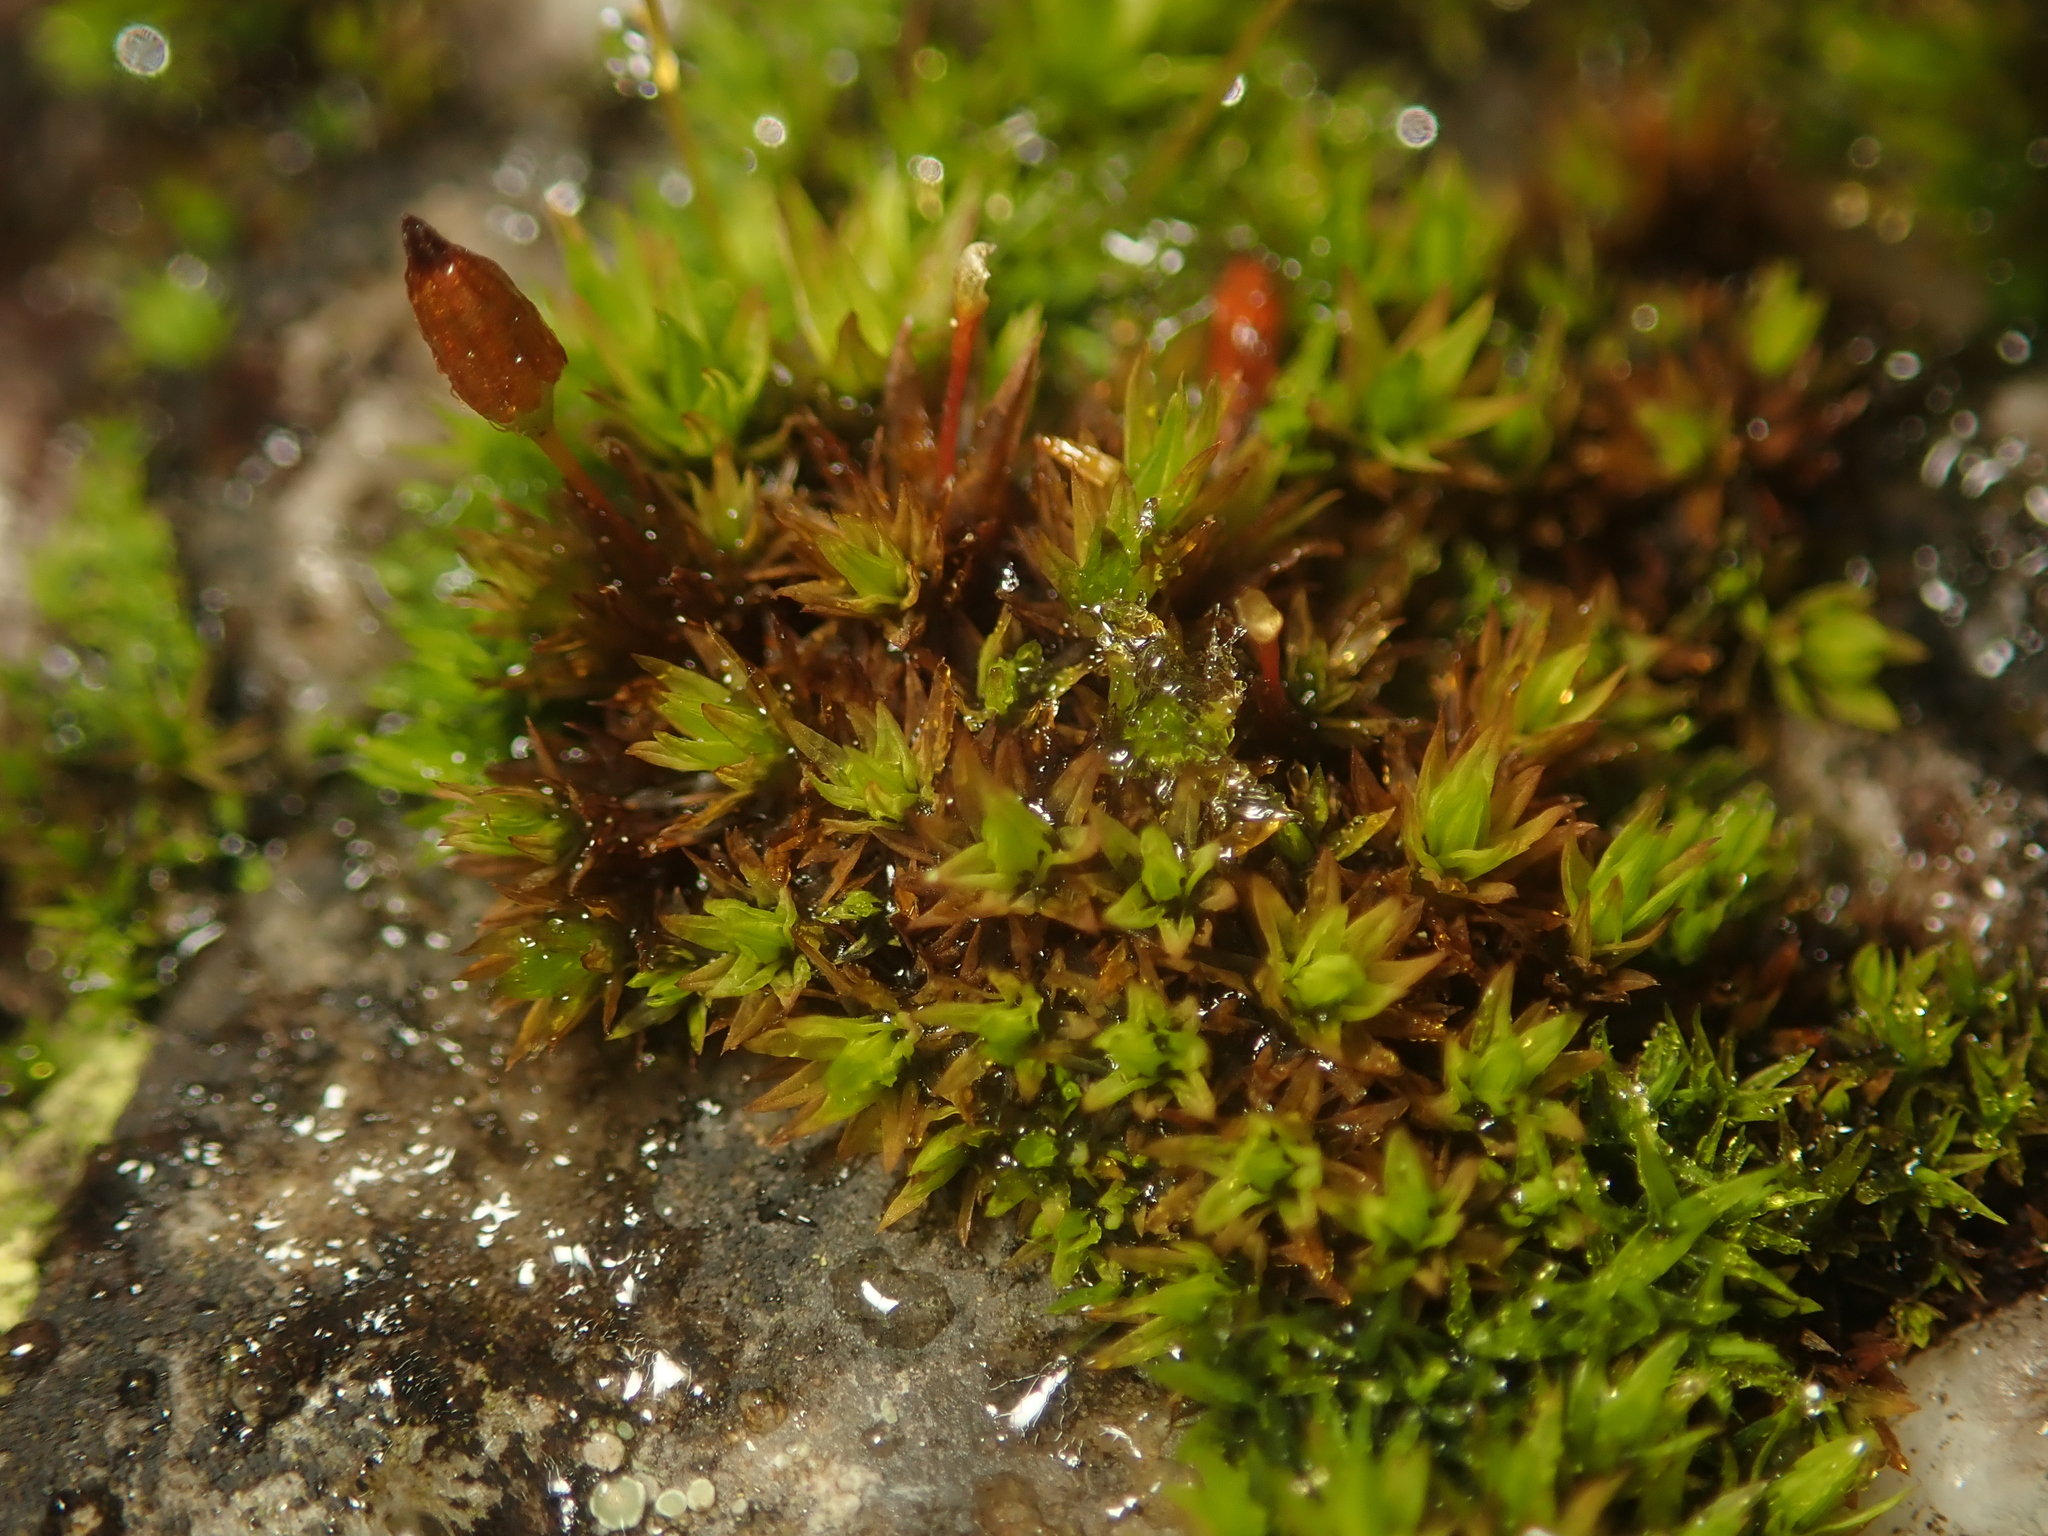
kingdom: Plantae
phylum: Bryophyta
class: Bryopsida
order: Orthotrichales
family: Orthotrichaceae
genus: Orthotrichum
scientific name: Orthotrichum anomalum
